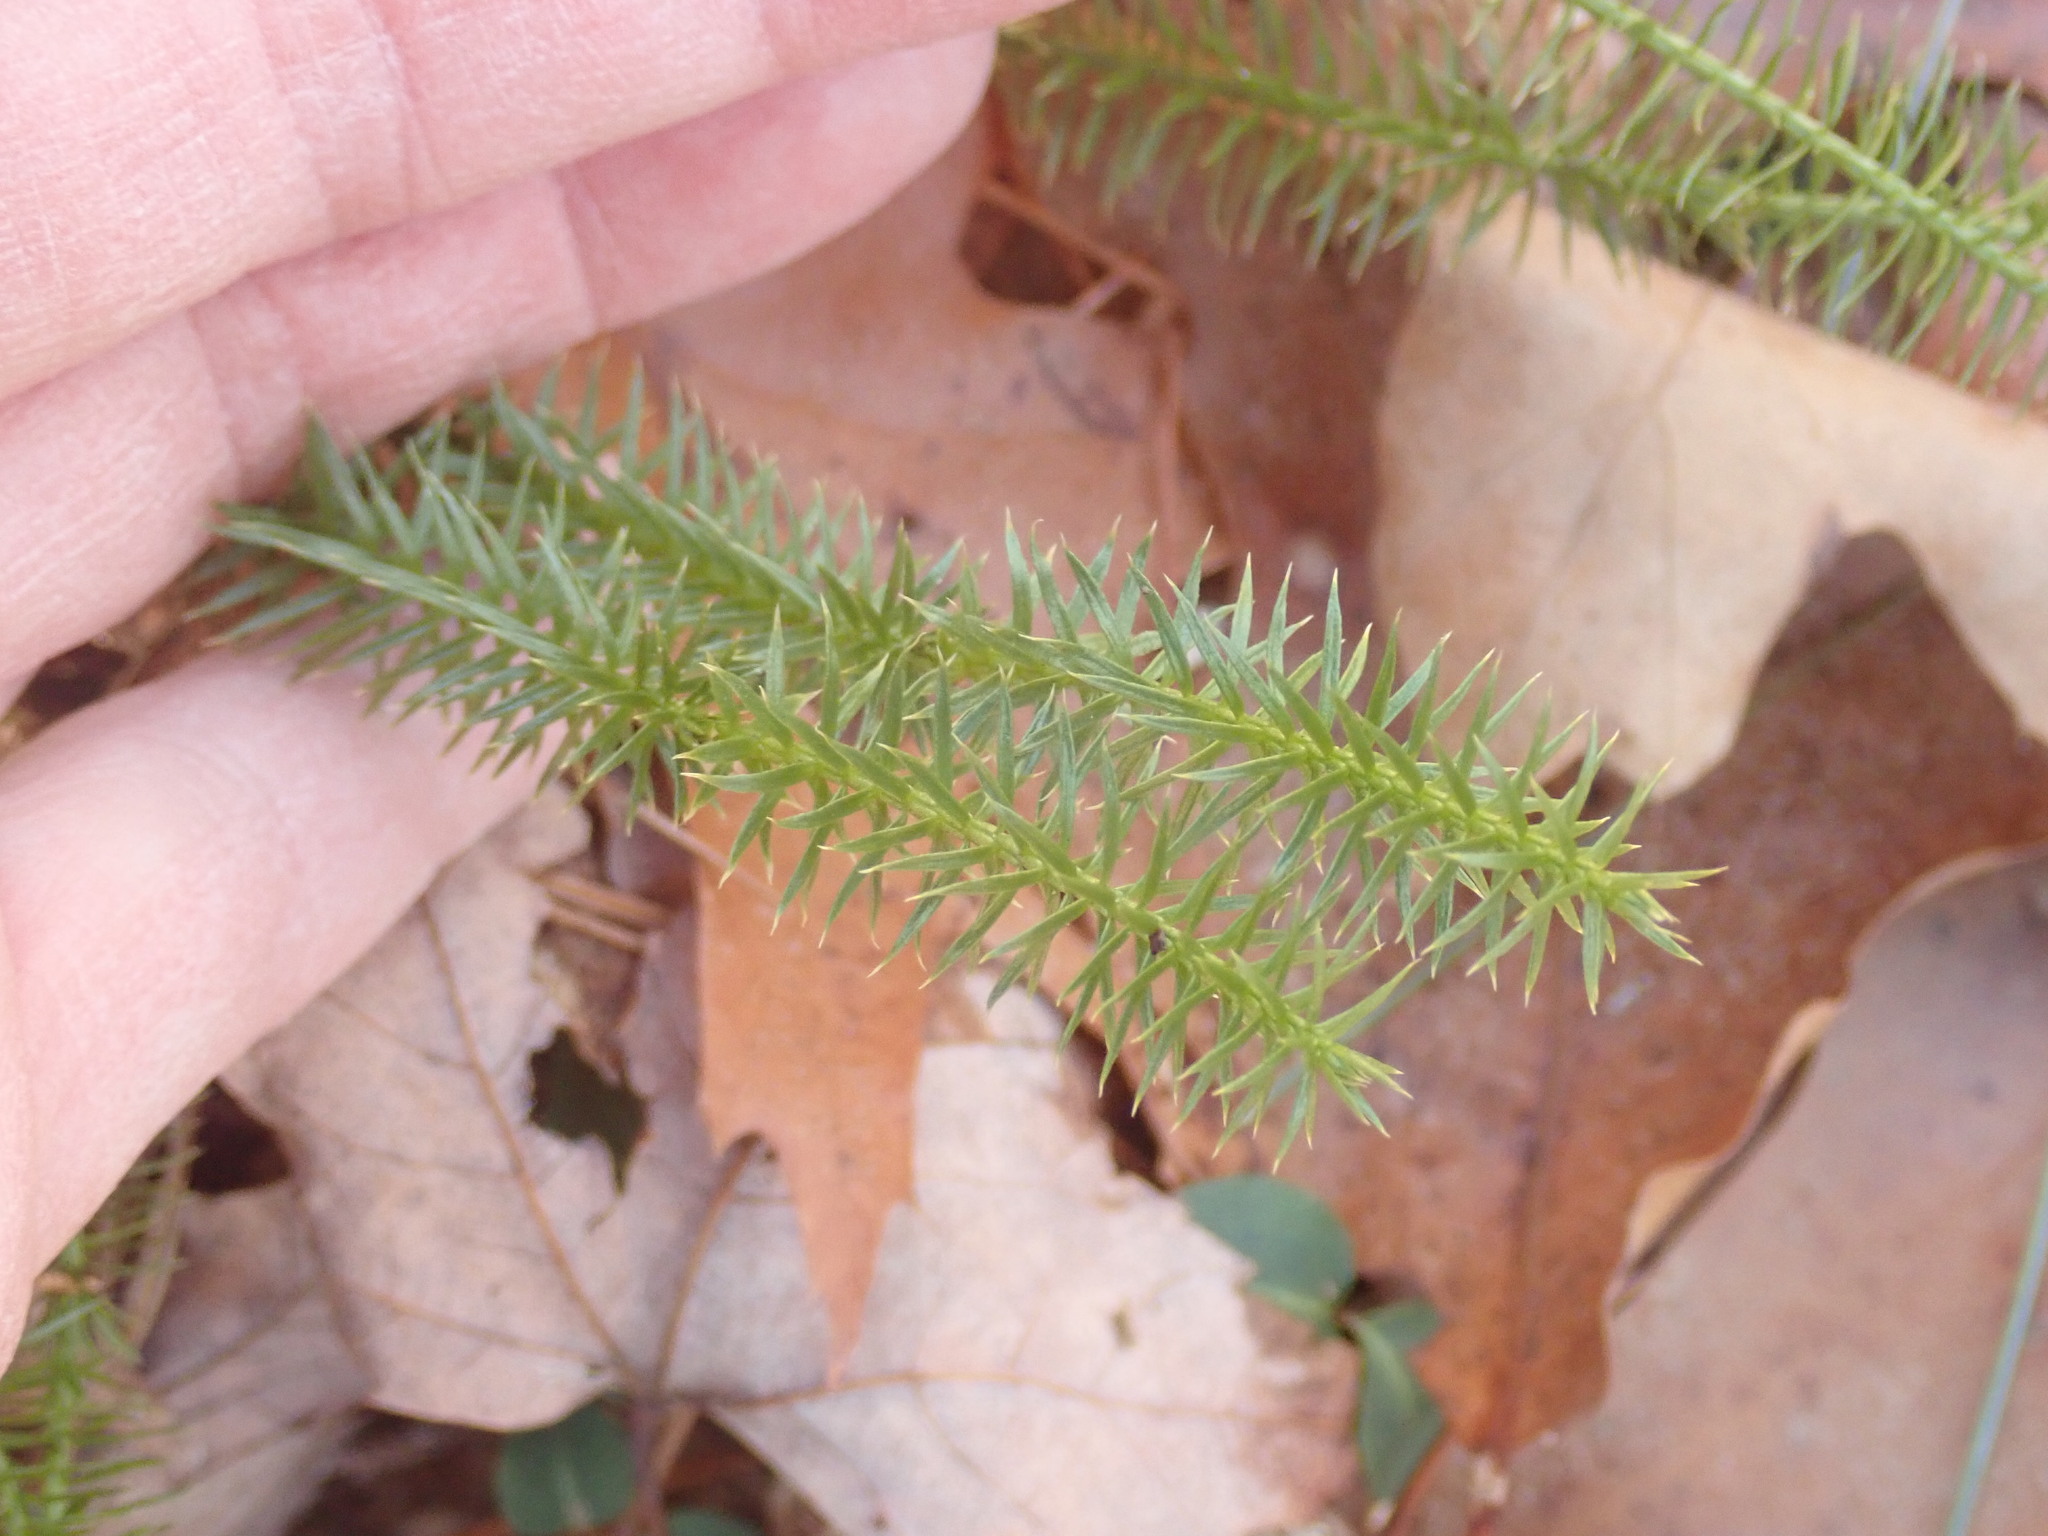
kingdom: Plantae
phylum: Tracheophyta
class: Lycopodiopsida
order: Lycopodiales
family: Lycopodiaceae
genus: Spinulum
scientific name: Spinulum annotinum
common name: Interrupted club-moss
